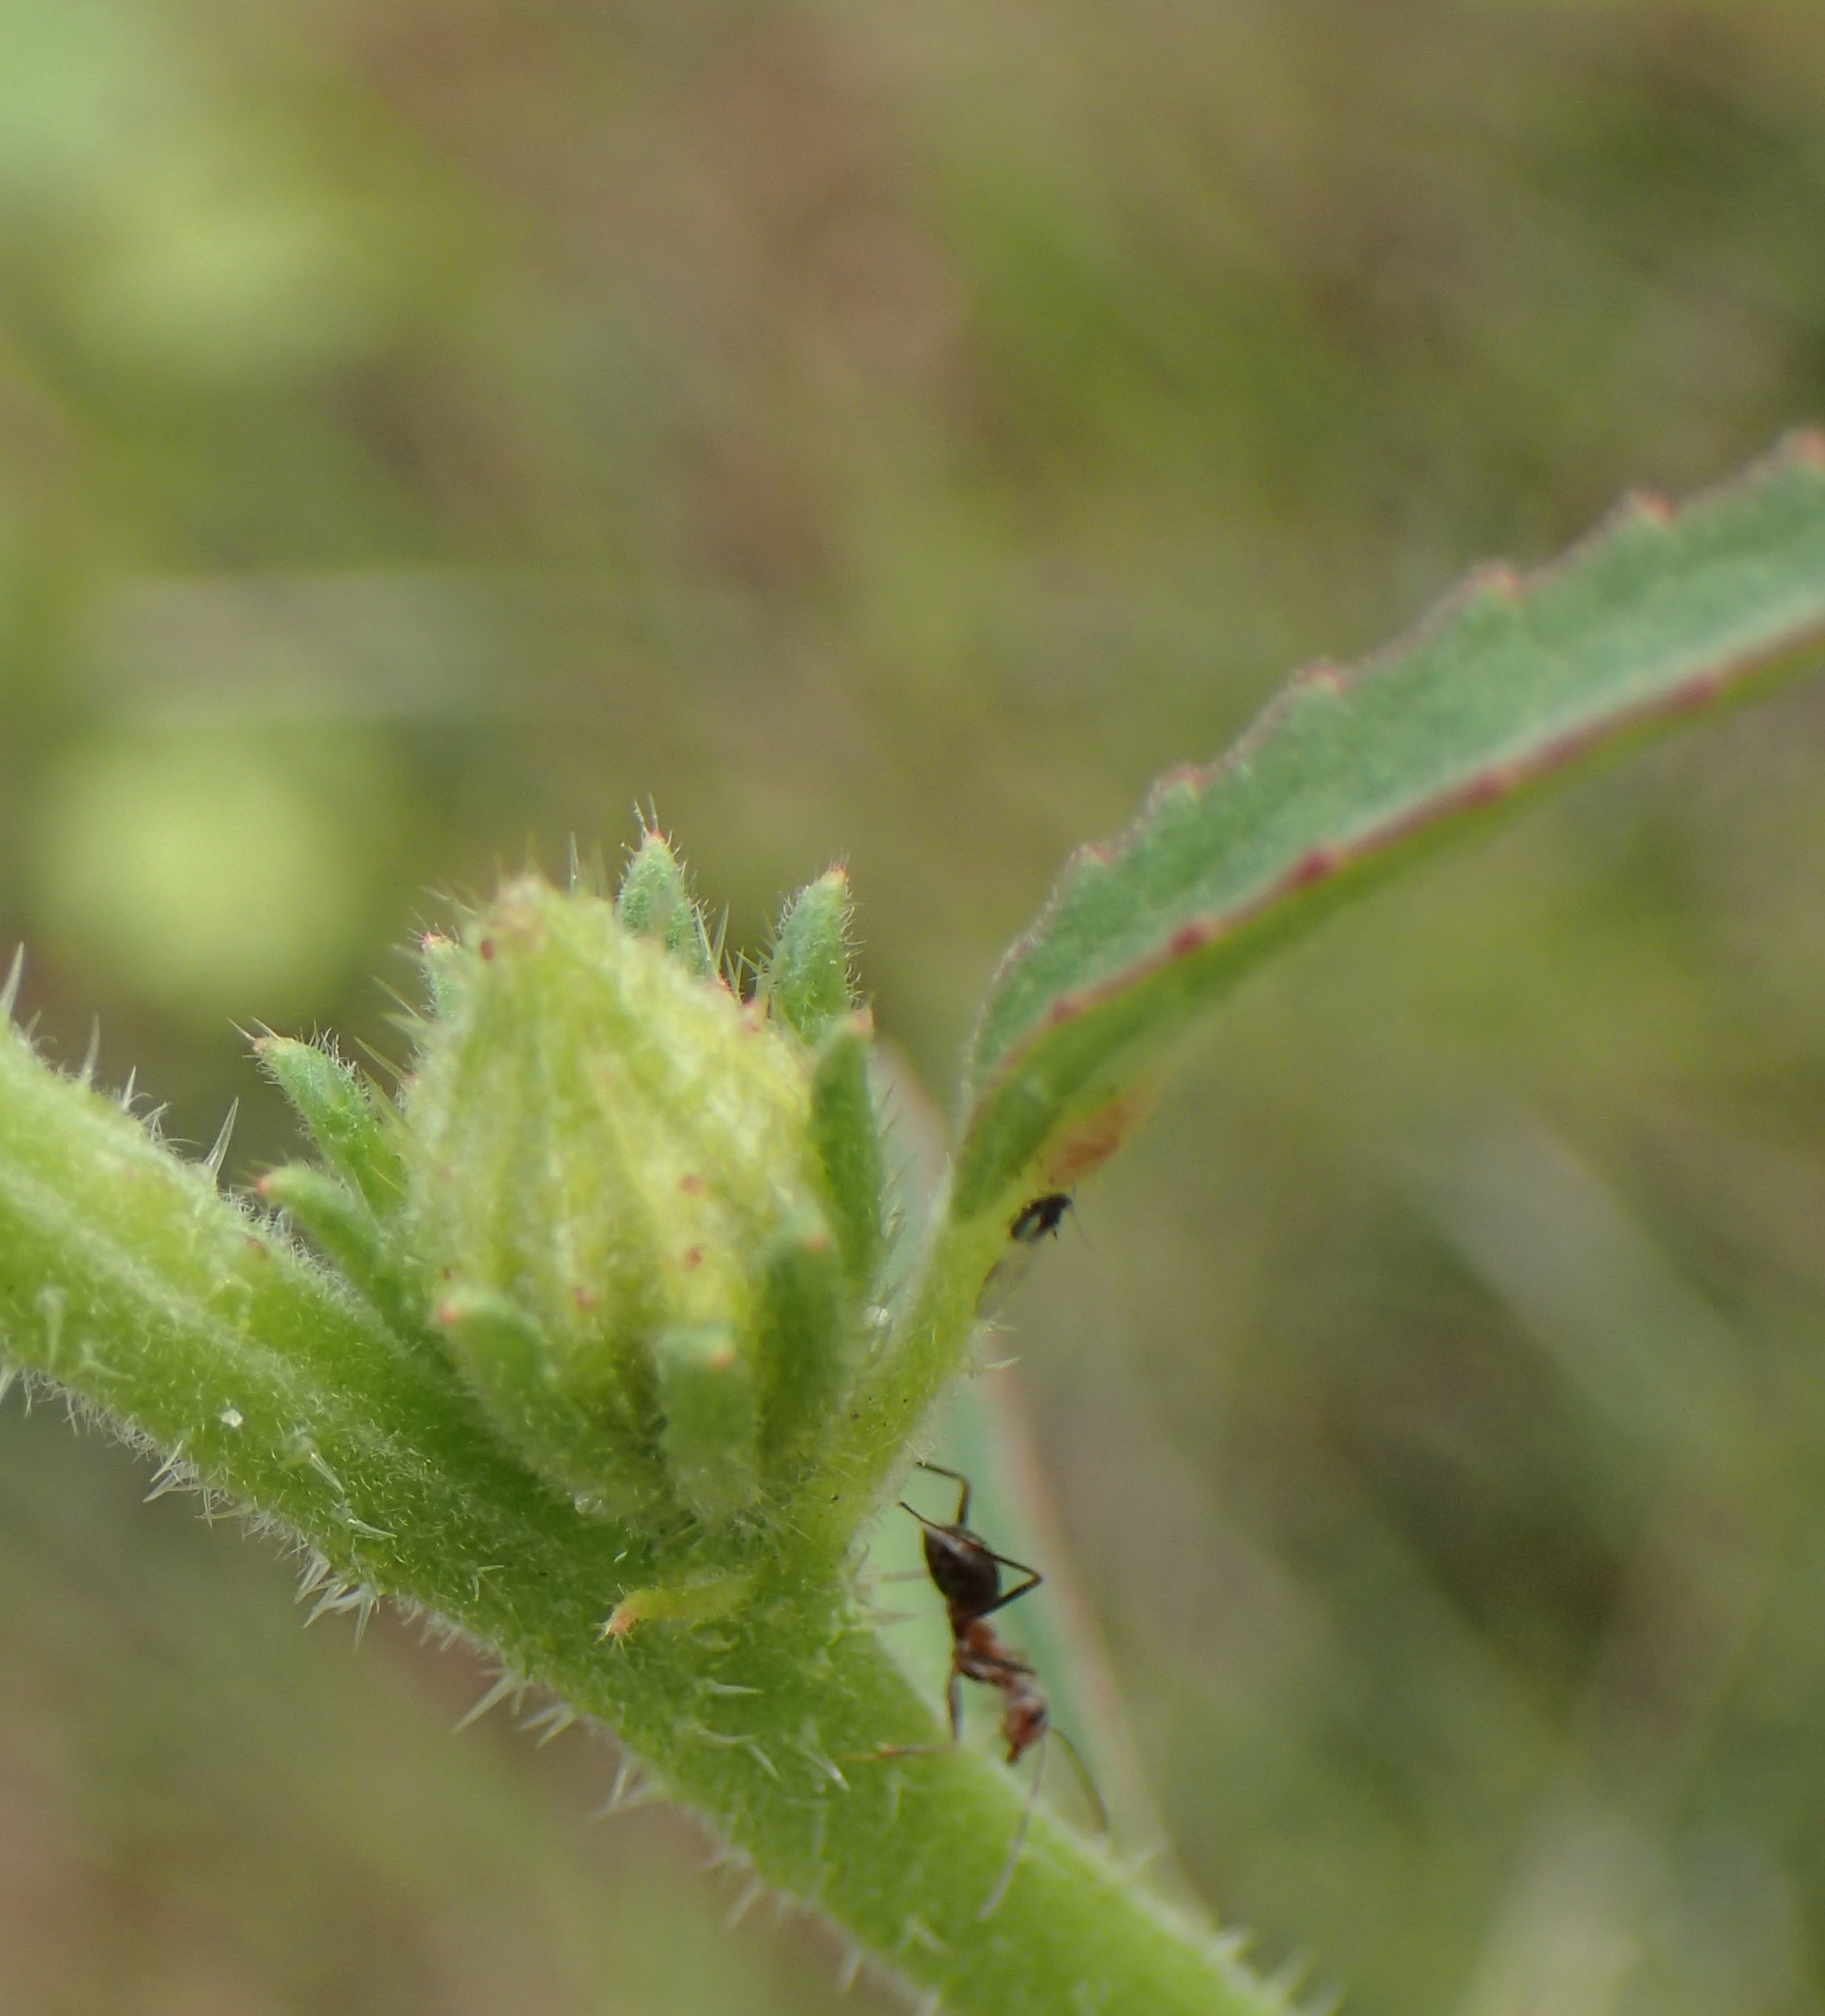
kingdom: Plantae
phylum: Tracheophyta
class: Magnoliopsida
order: Malvales
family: Malvaceae
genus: Hibiscus
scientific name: Hibiscus cannabinus
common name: Brown indianhemp
